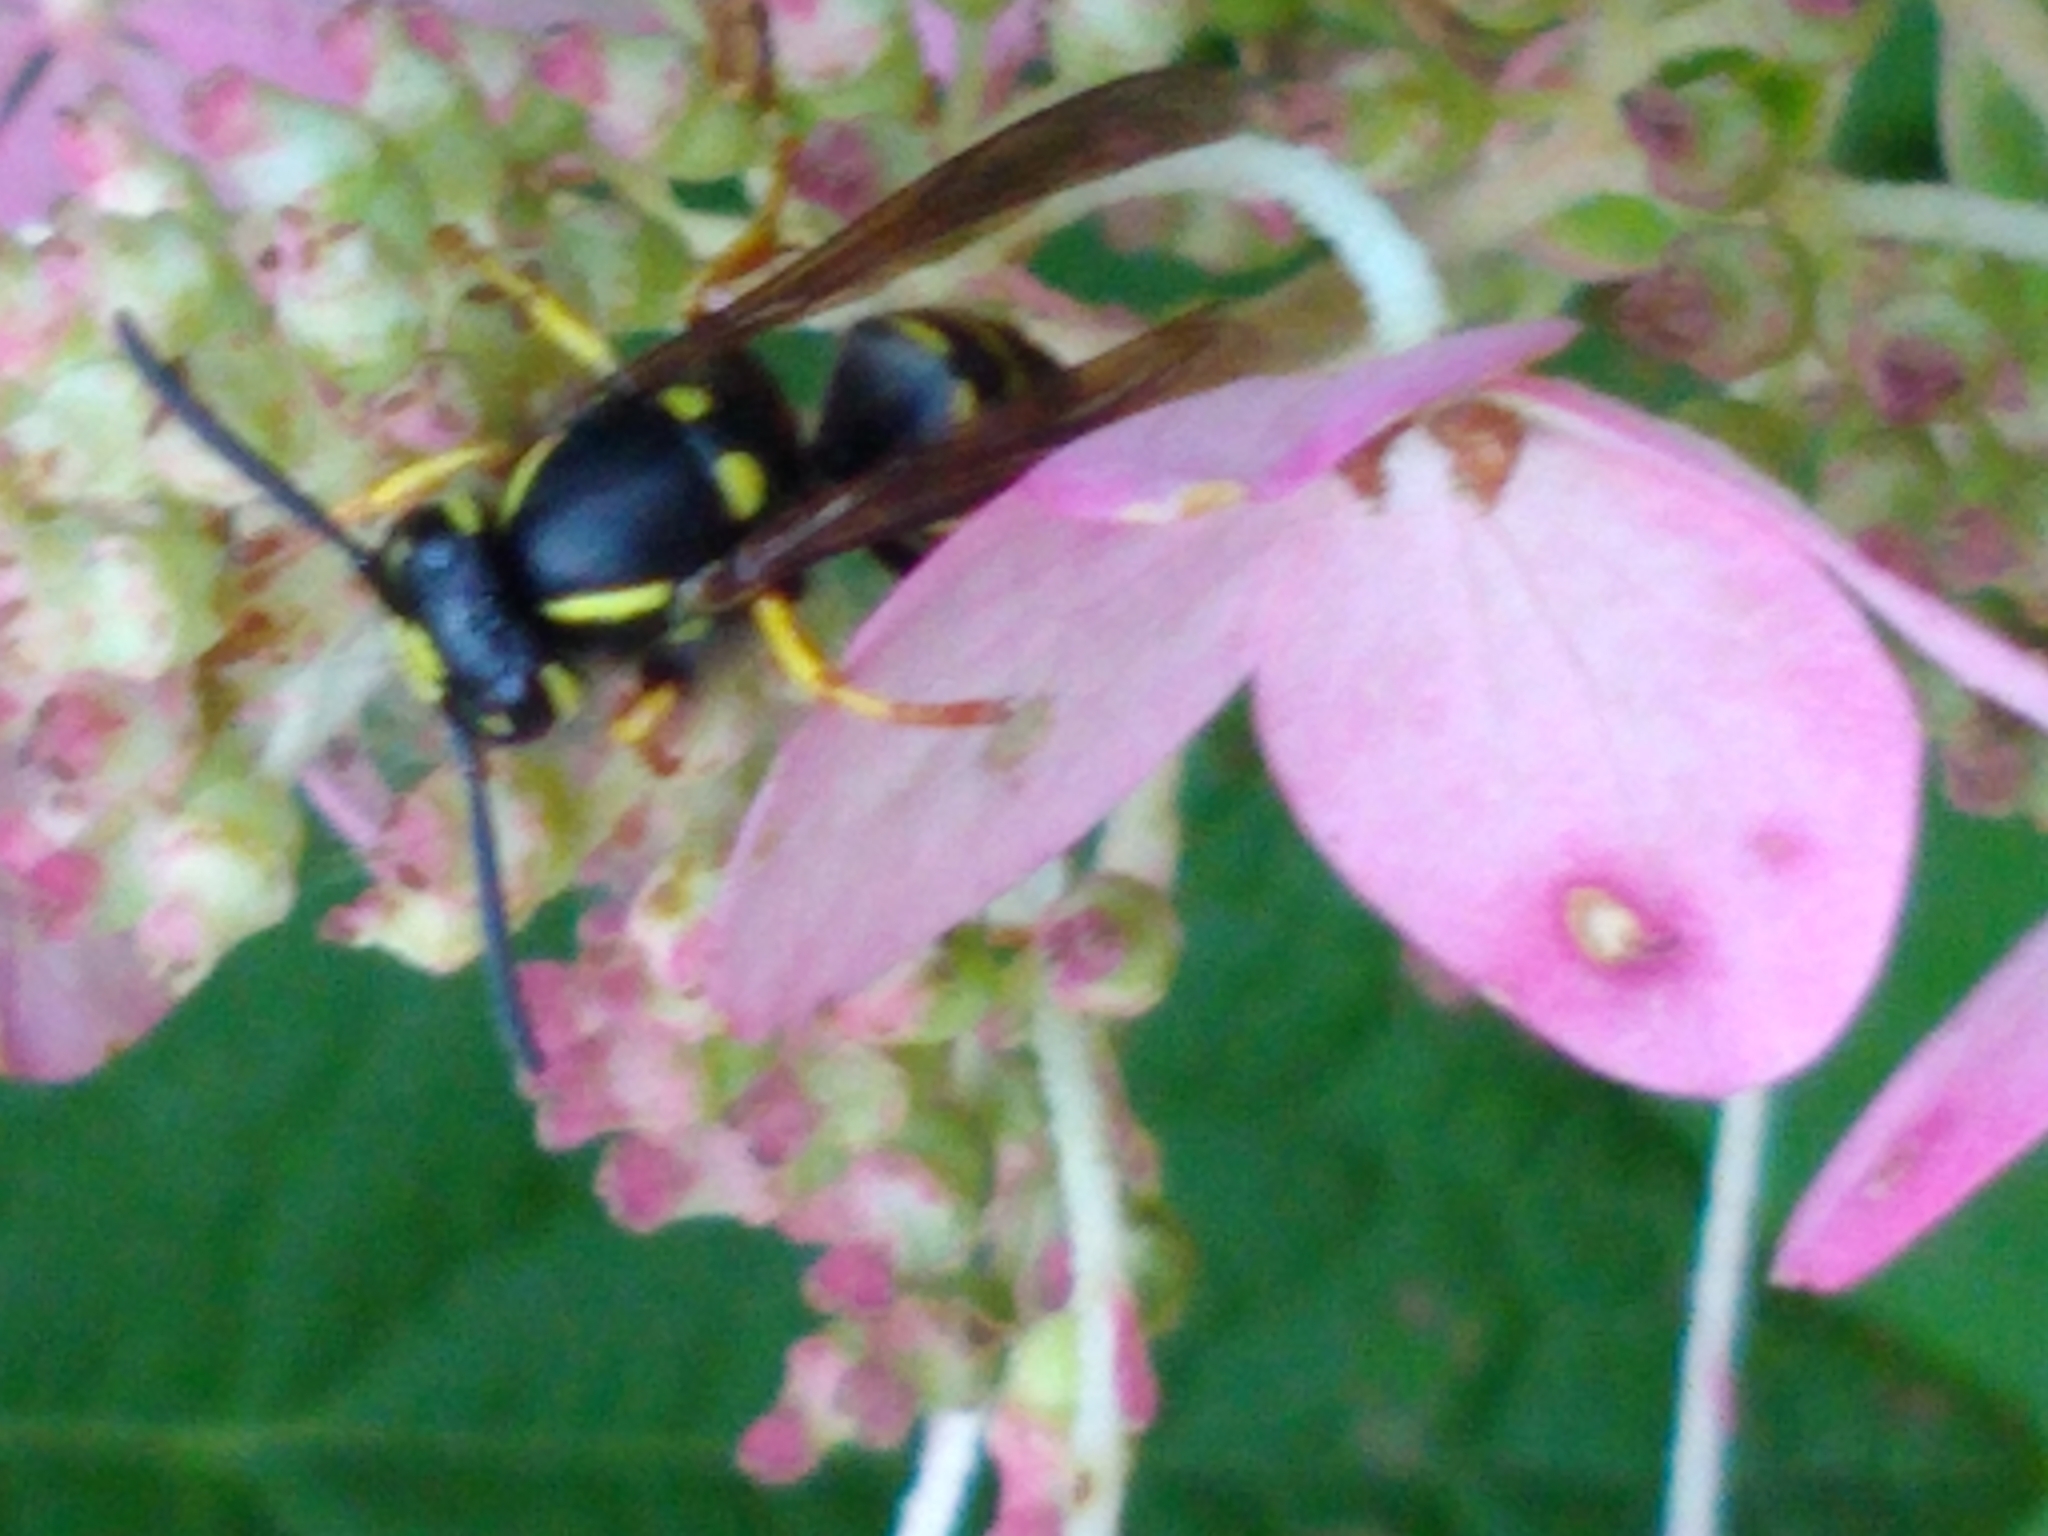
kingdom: Animalia
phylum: Arthropoda
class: Insecta
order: Hymenoptera
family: Vespidae
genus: Vespula
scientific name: Vespula
